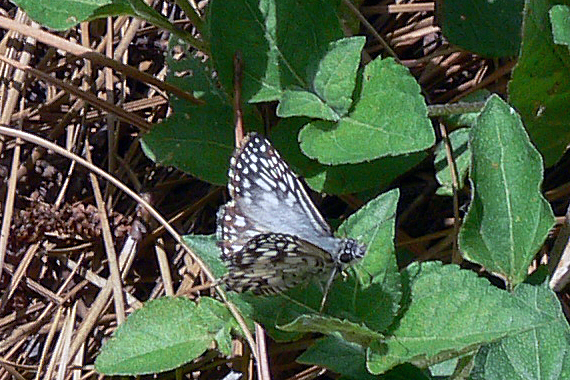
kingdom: Animalia
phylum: Arthropoda
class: Insecta
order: Lepidoptera
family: Hesperiidae
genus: Pyrgus
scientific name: Pyrgus oileus
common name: Tropical checkered-skipper
